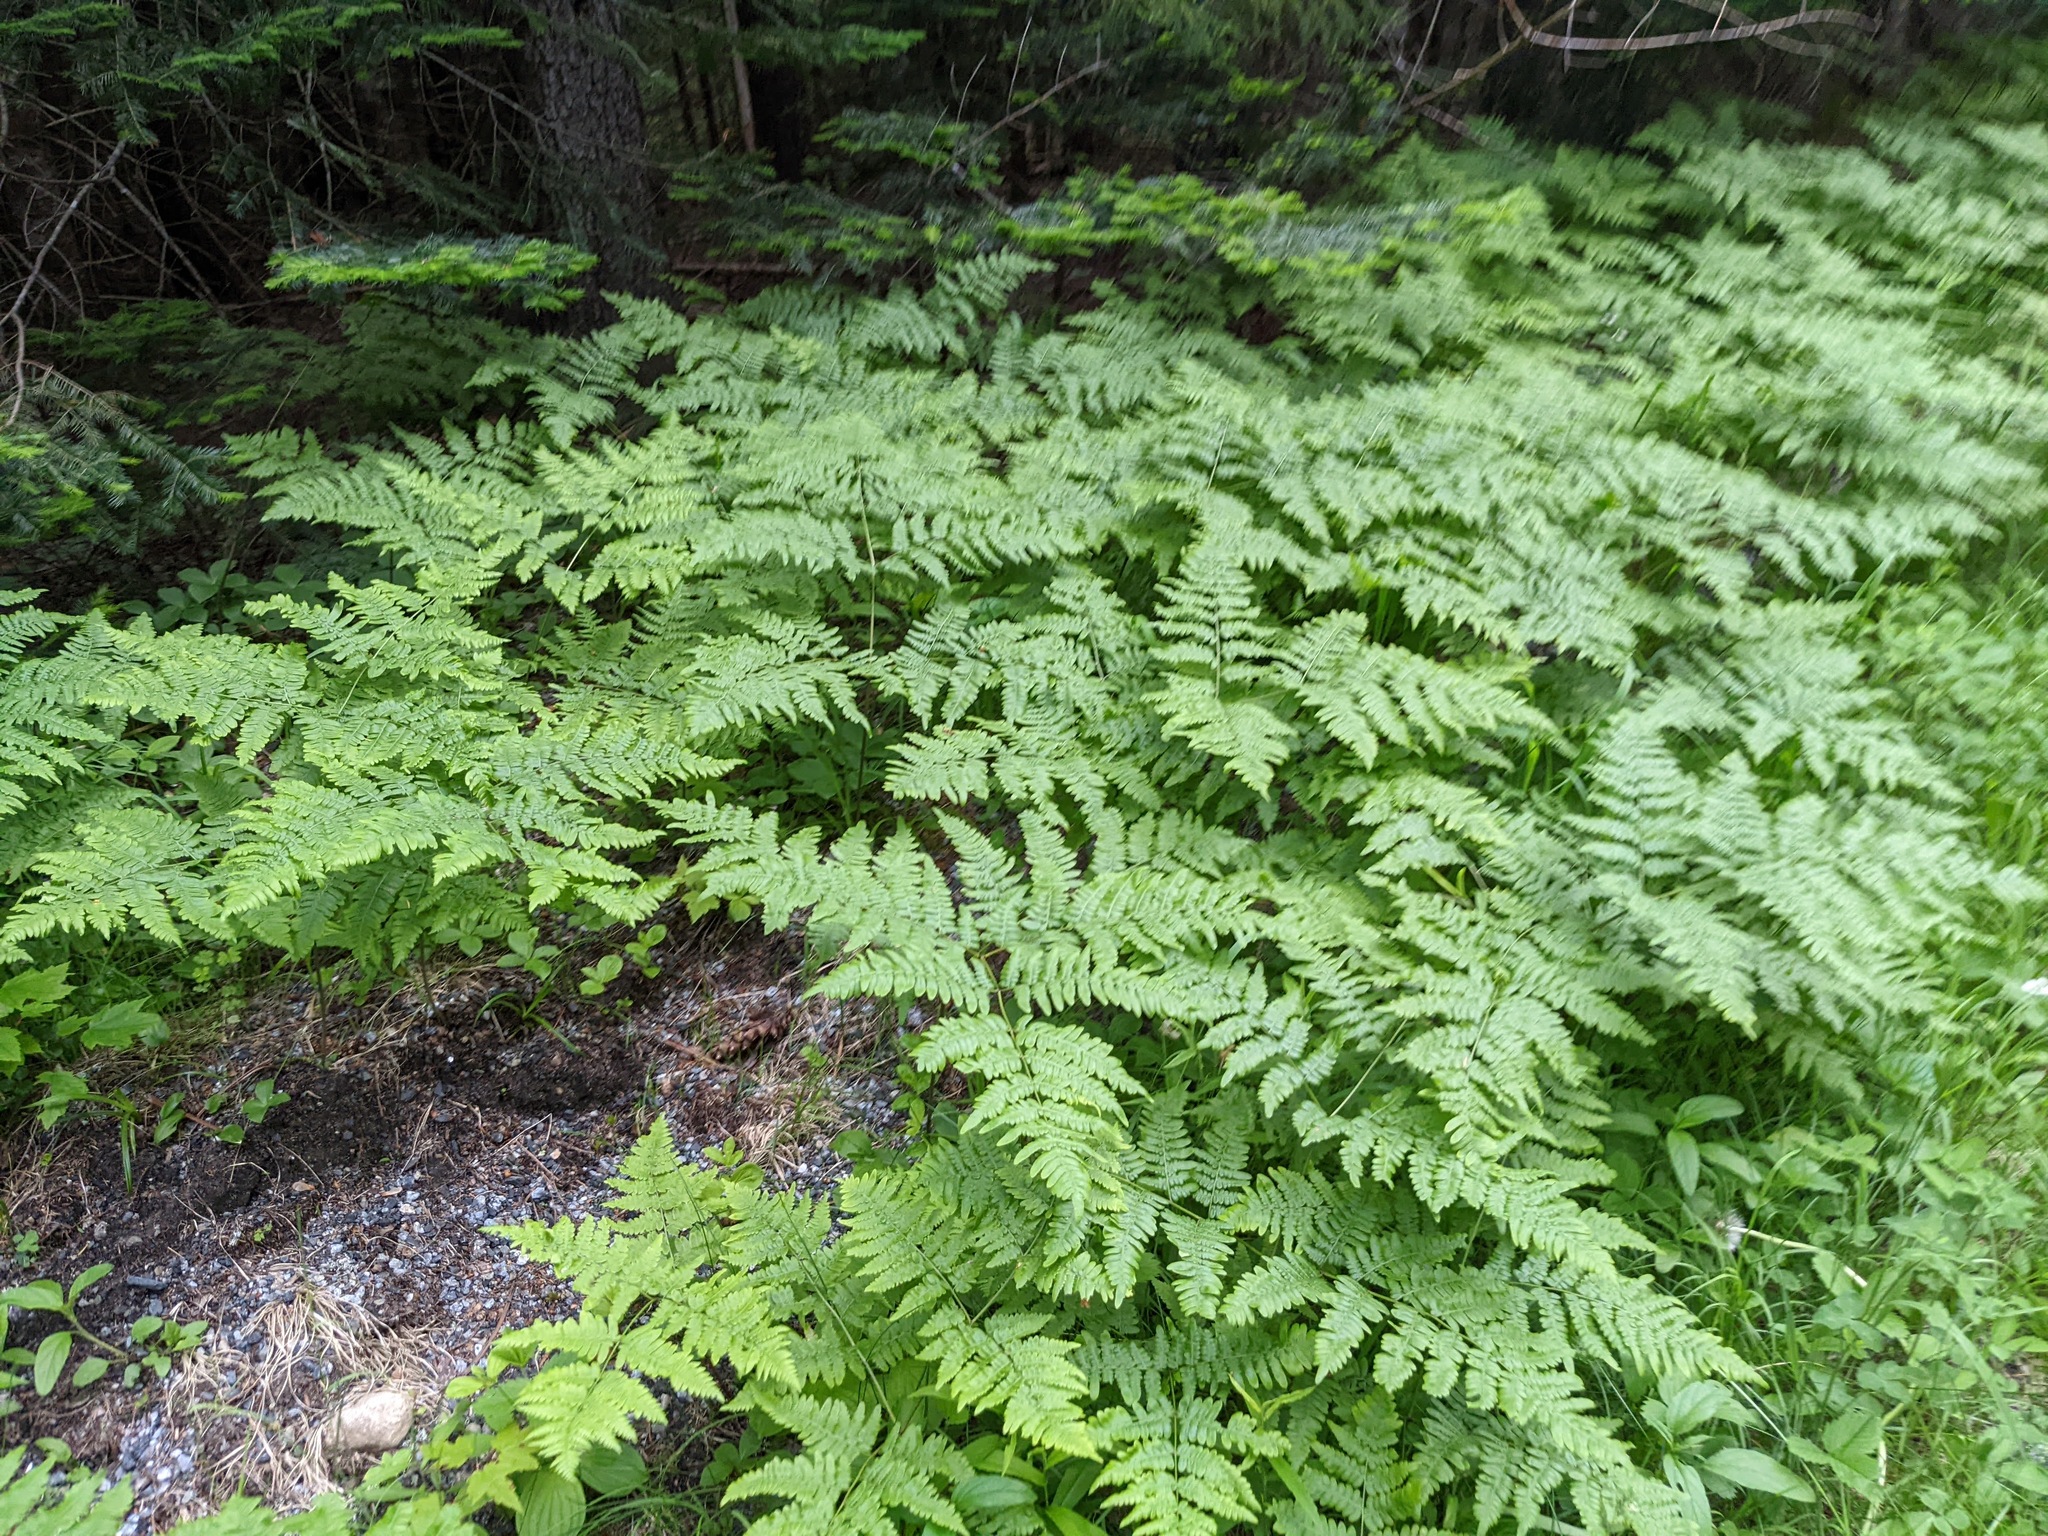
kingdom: Plantae
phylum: Tracheophyta
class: Polypodiopsida
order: Polypodiales
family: Dennstaedtiaceae
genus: Pteridium
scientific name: Pteridium aquilinum
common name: Bracken
